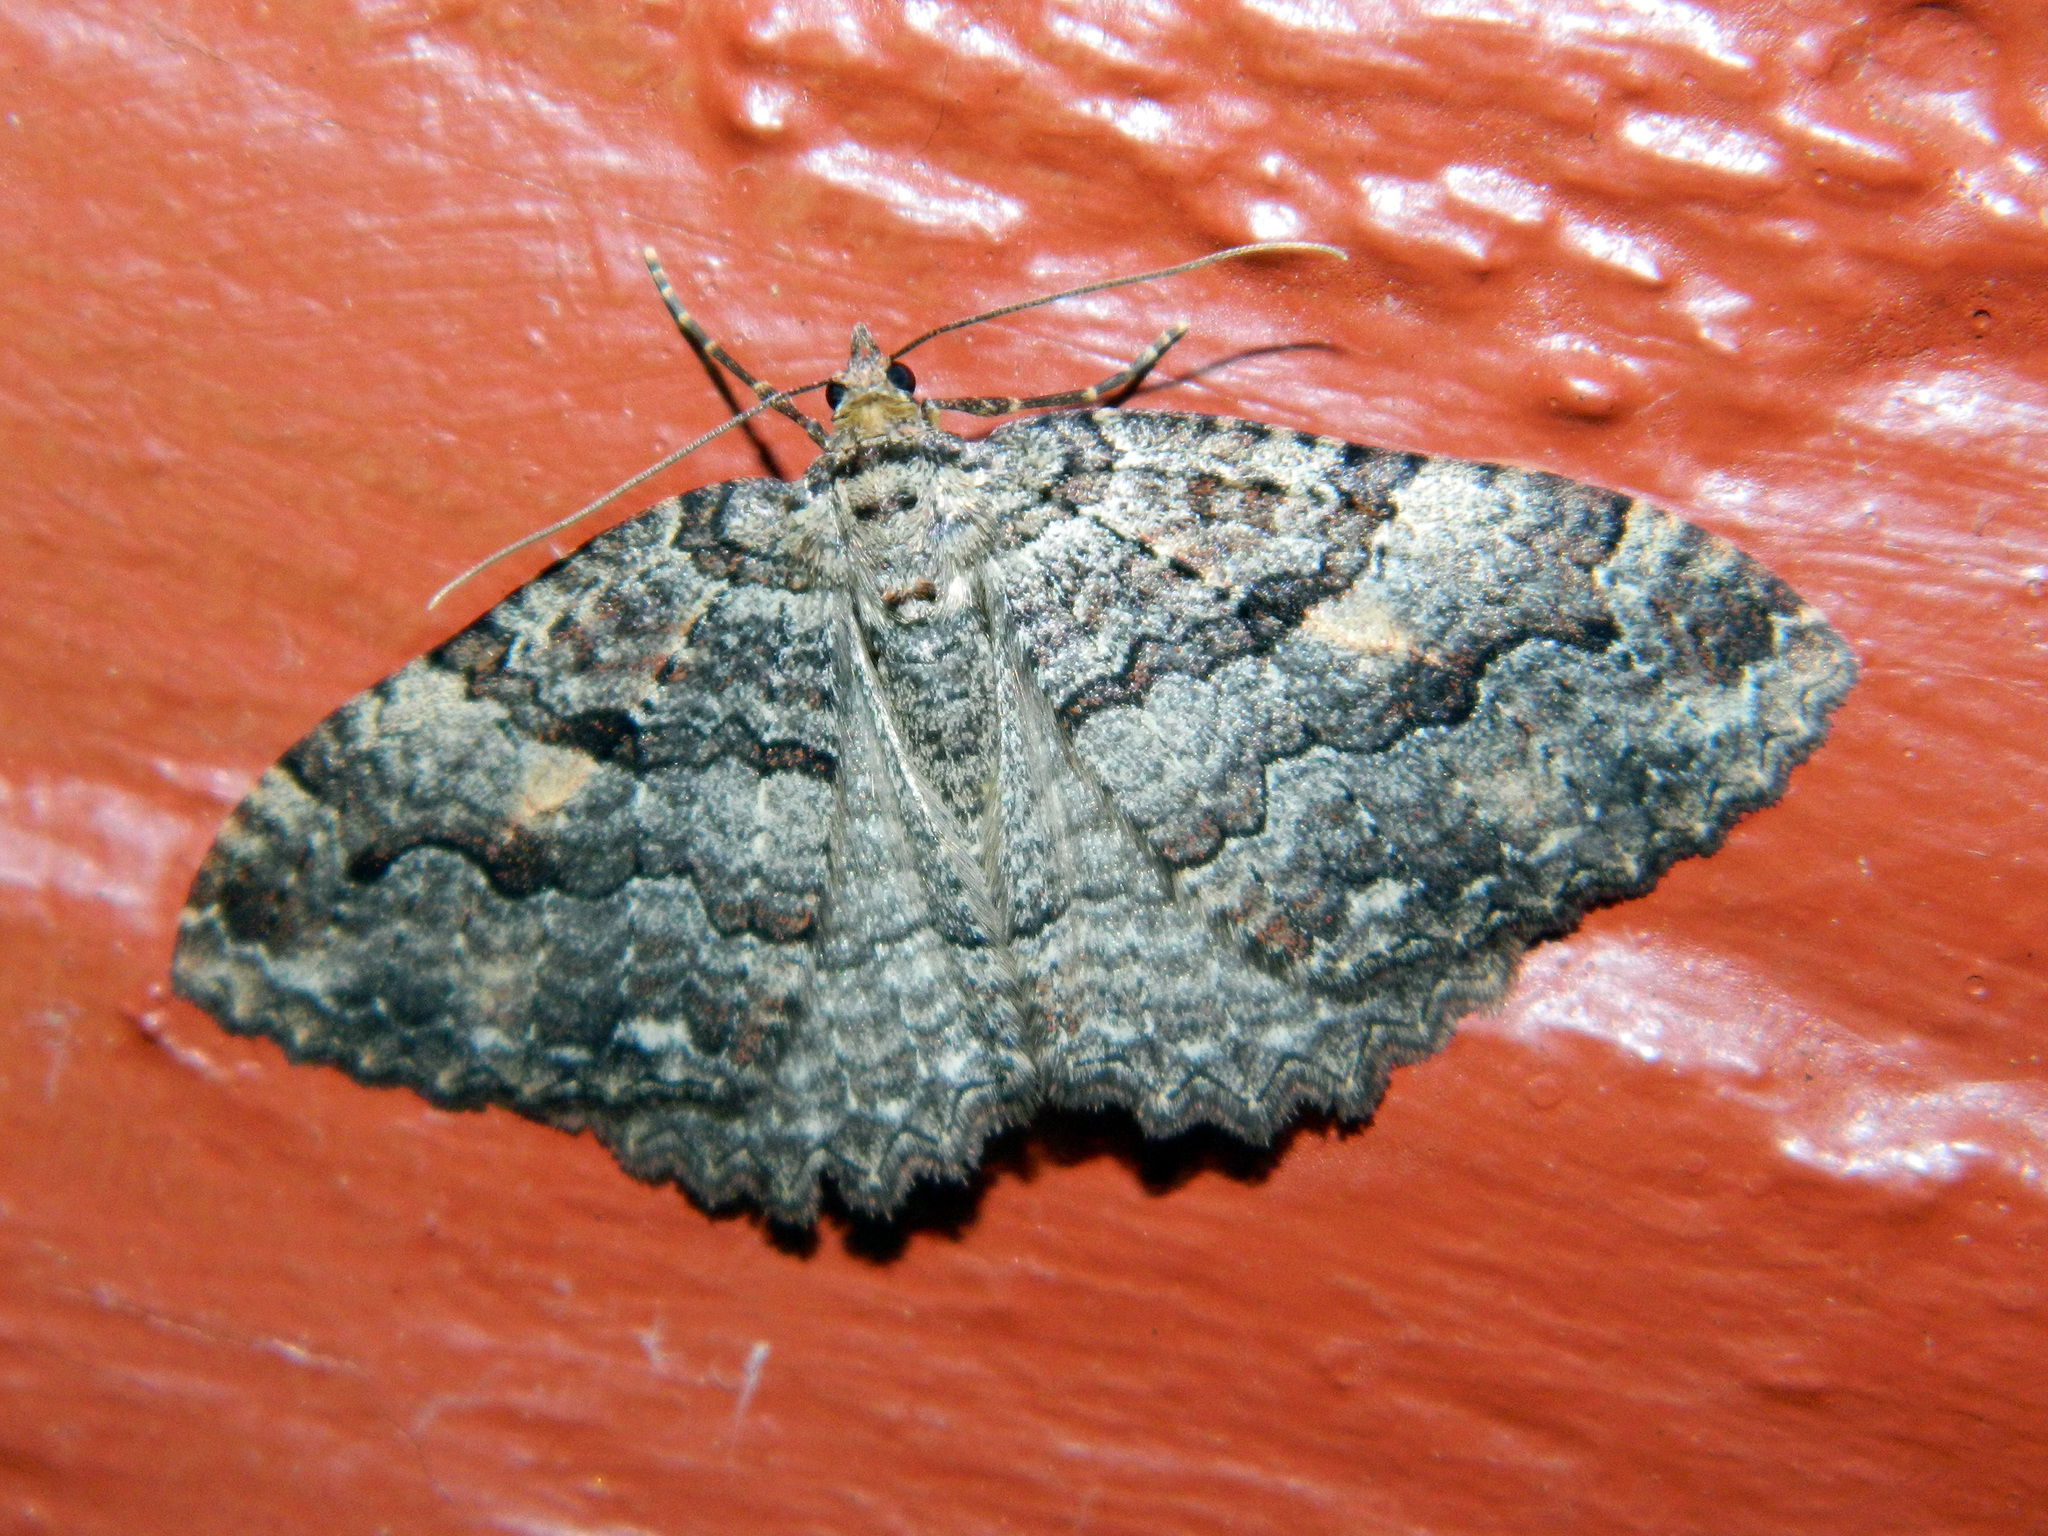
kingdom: Animalia
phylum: Arthropoda
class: Insecta
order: Lepidoptera
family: Geometridae
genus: Triphosa
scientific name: Triphosa haesitata
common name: Tissue moth
